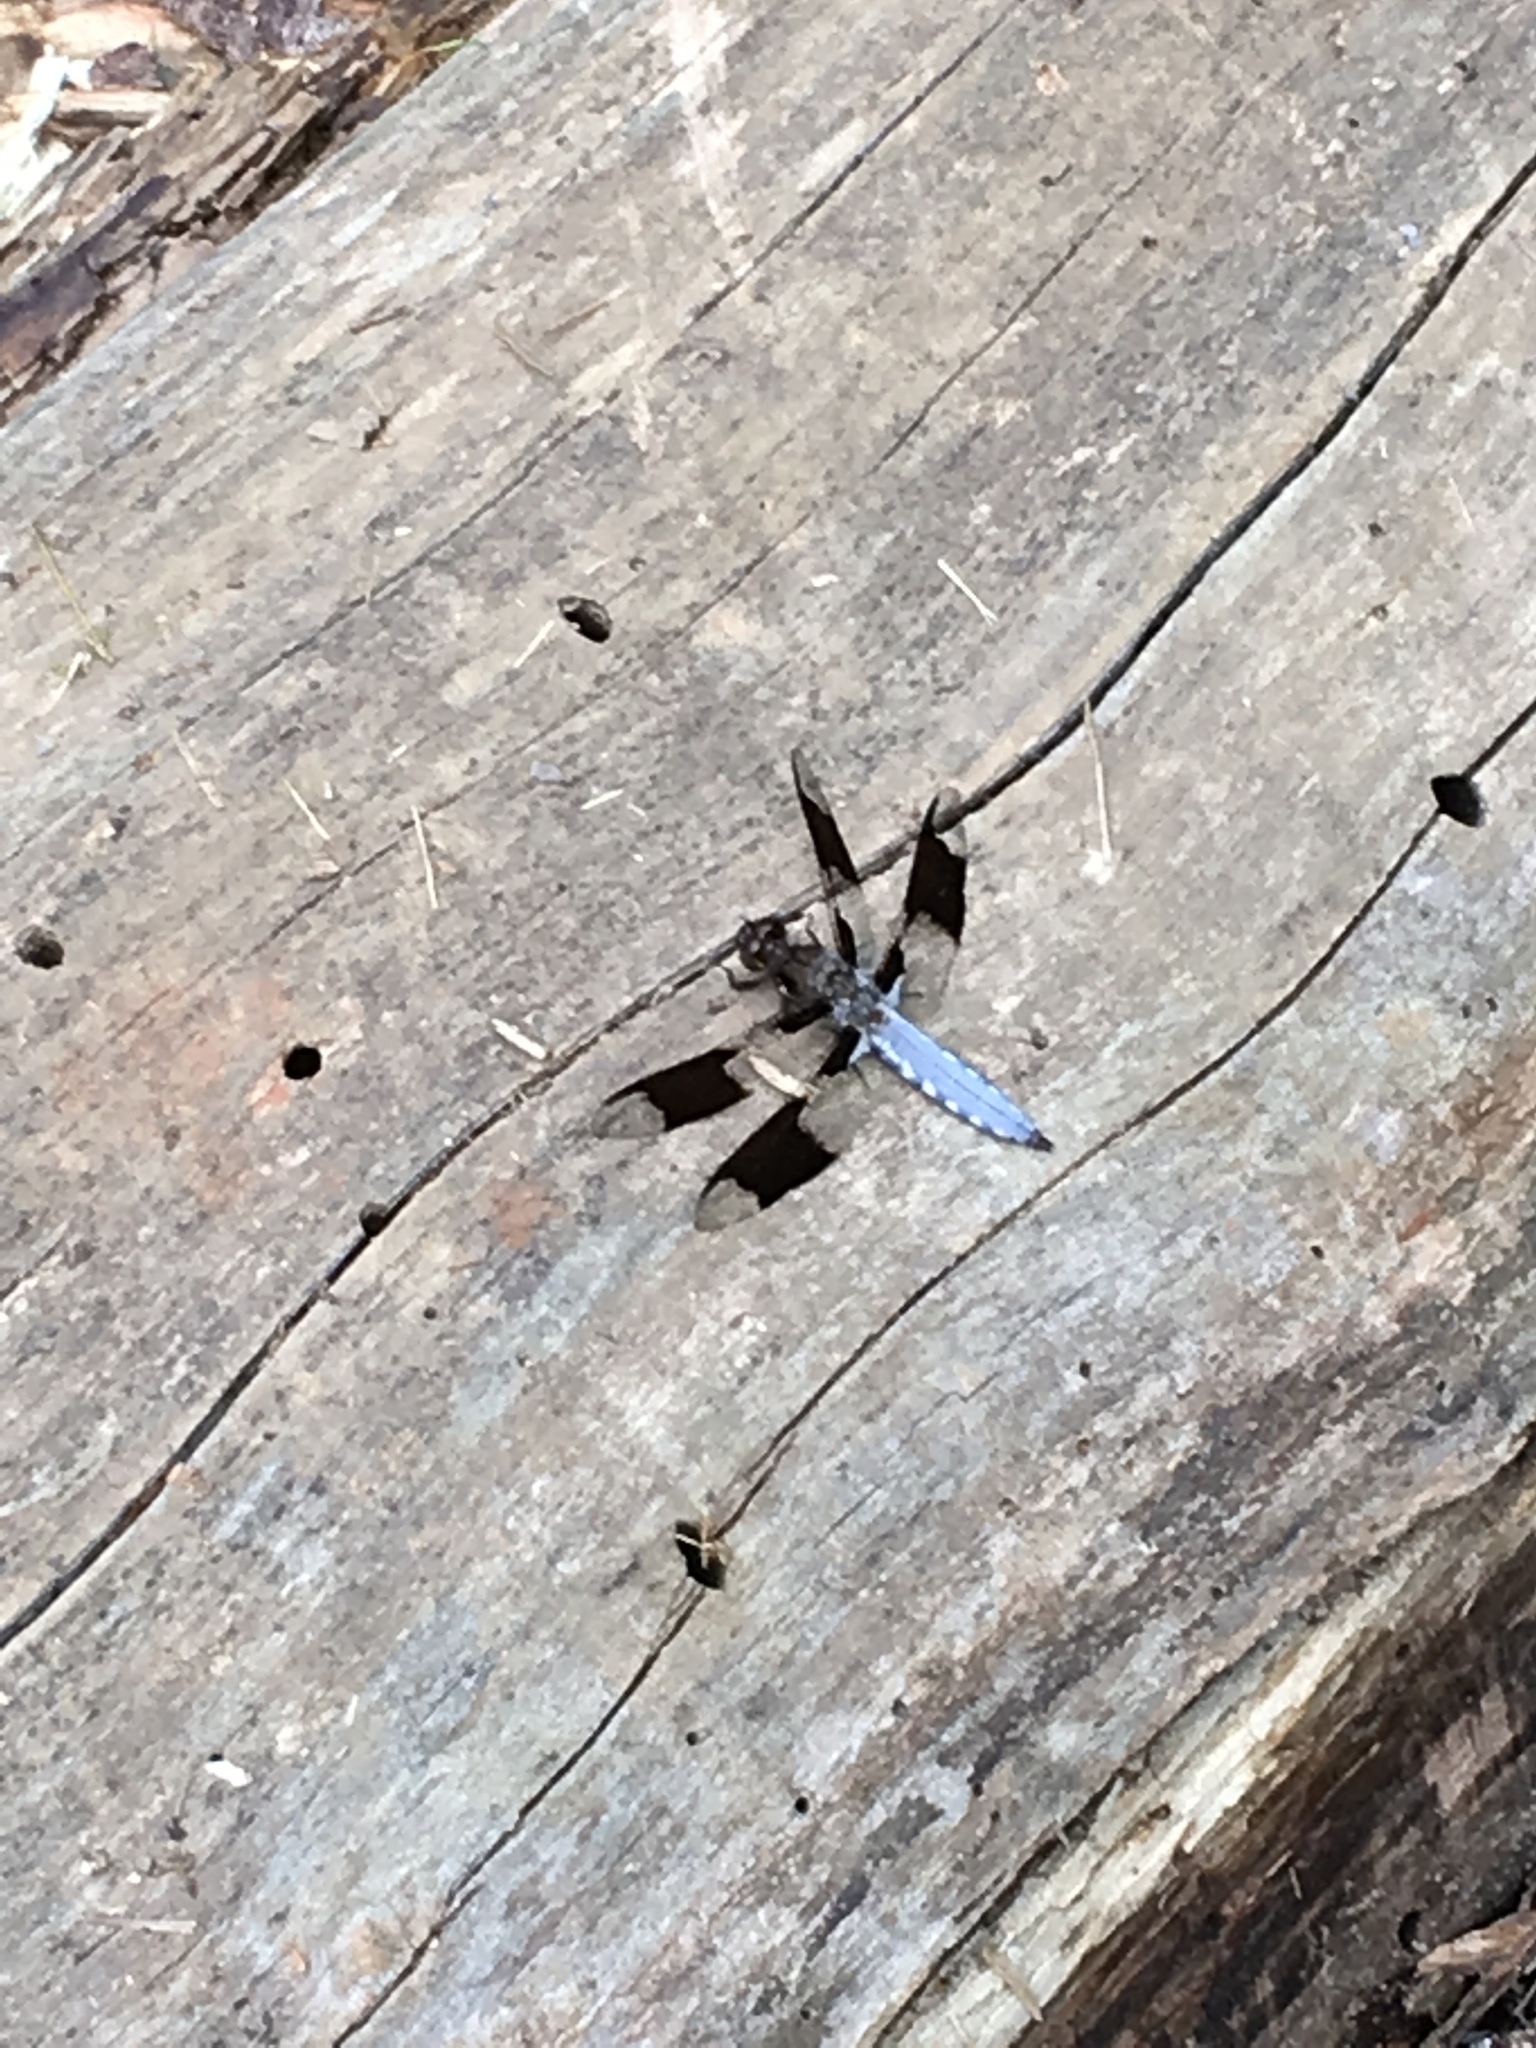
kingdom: Animalia
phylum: Arthropoda
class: Insecta
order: Odonata
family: Libellulidae
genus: Plathemis
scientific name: Plathemis lydia
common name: Common whitetail
